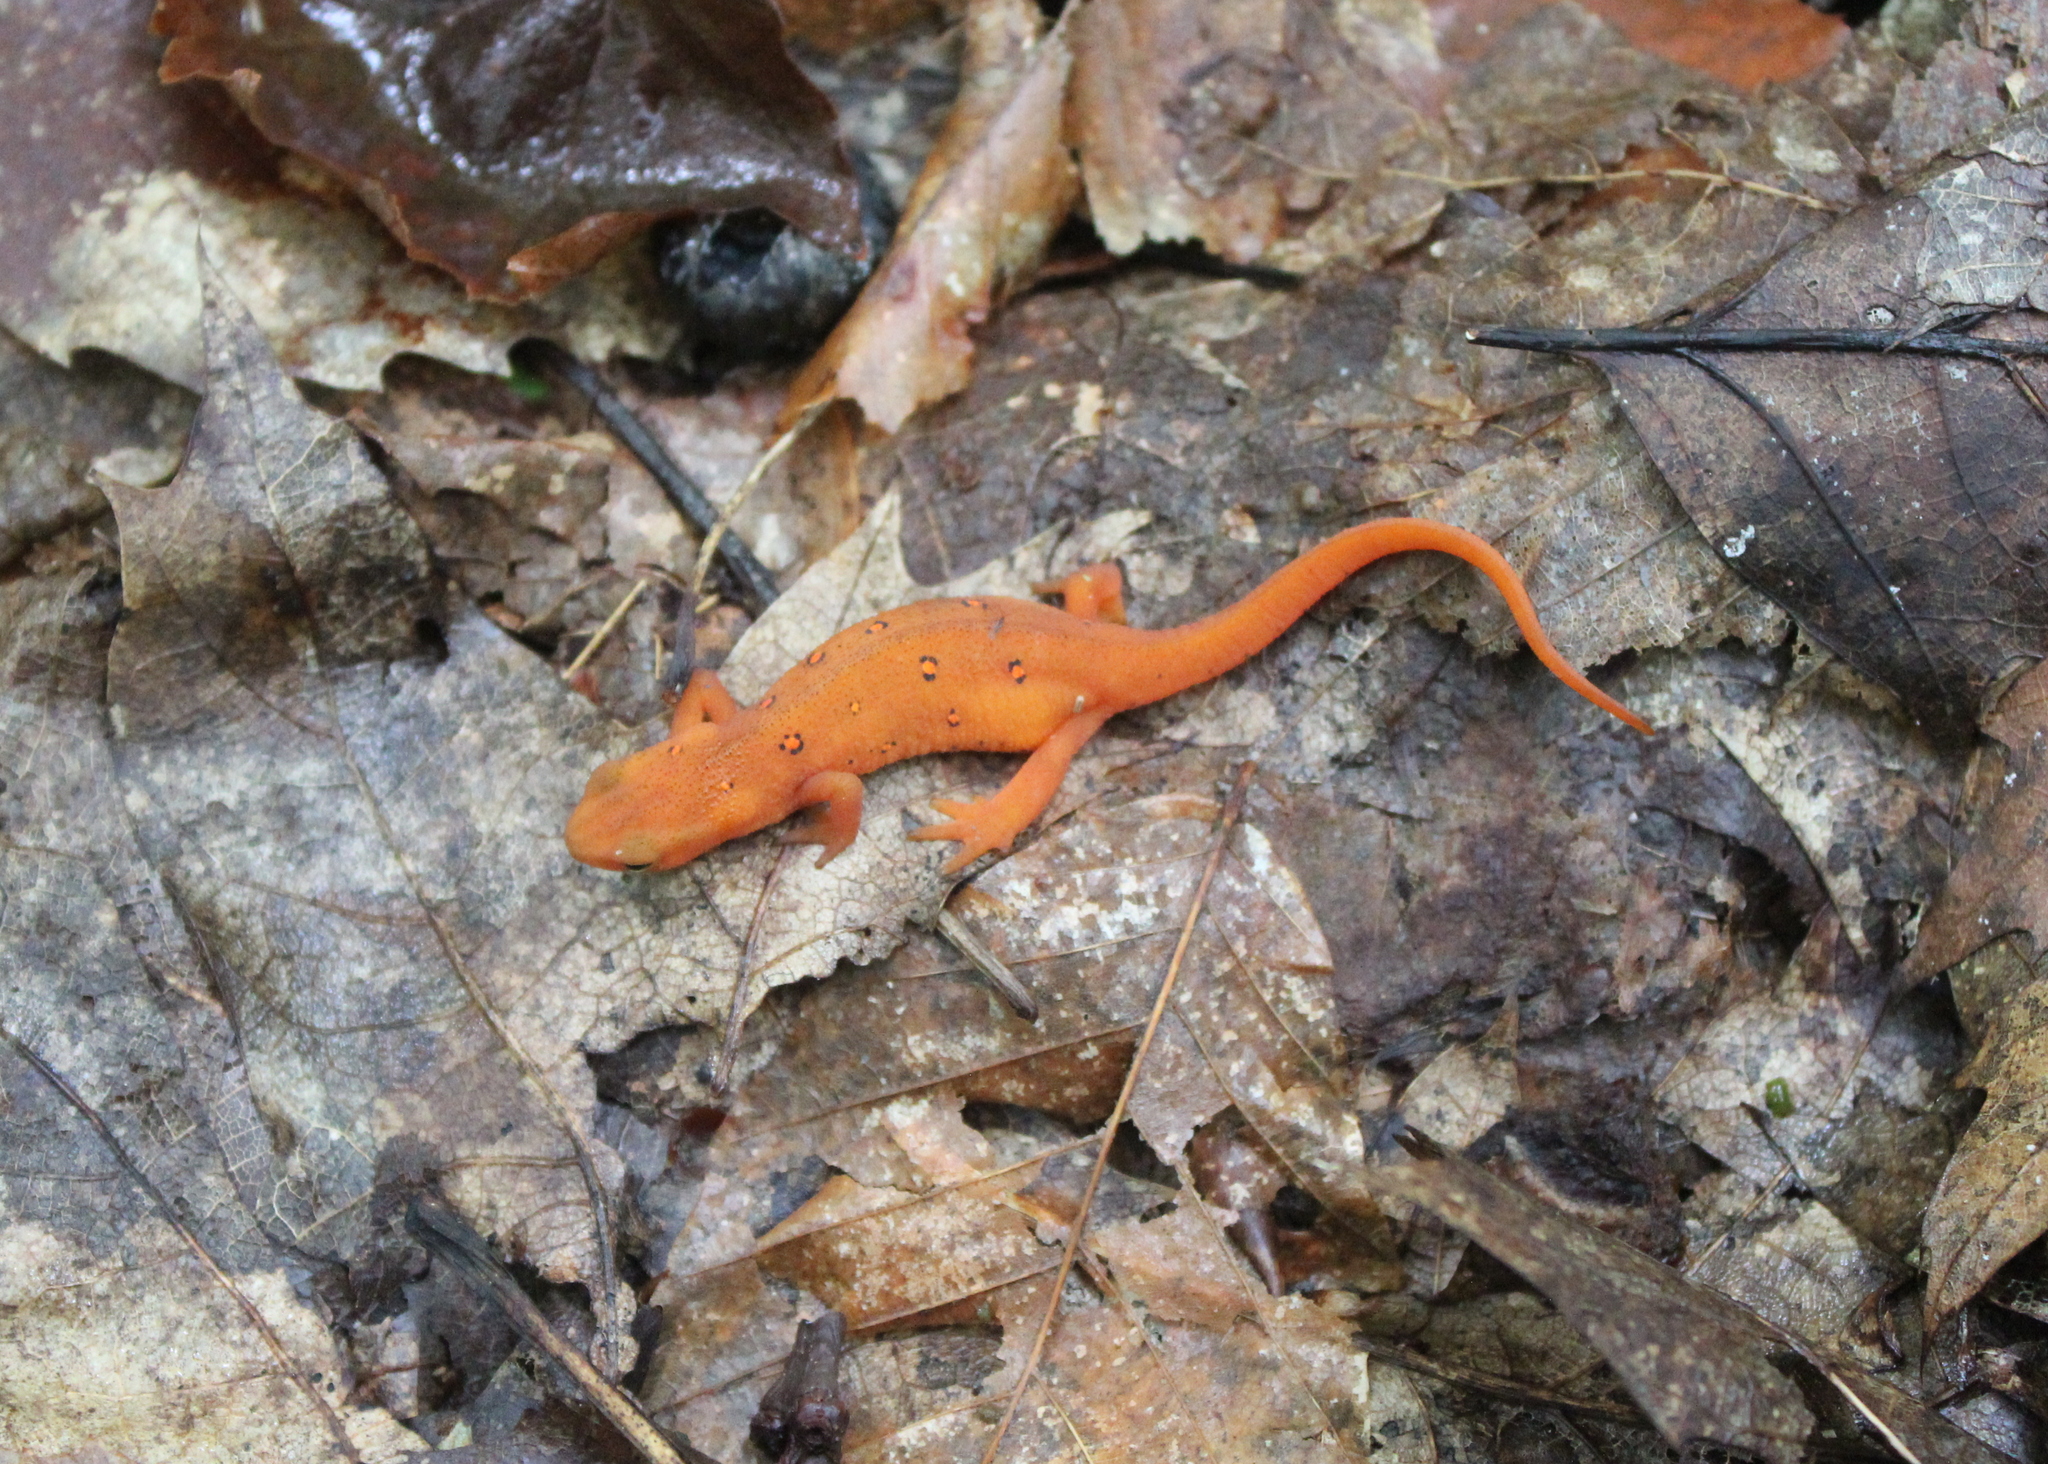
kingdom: Animalia
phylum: Chordata
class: Amphibia
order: Caudata
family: Salamandridae
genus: Notophthalmus
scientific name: Notophthalmus viridescens
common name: Eastern newt
